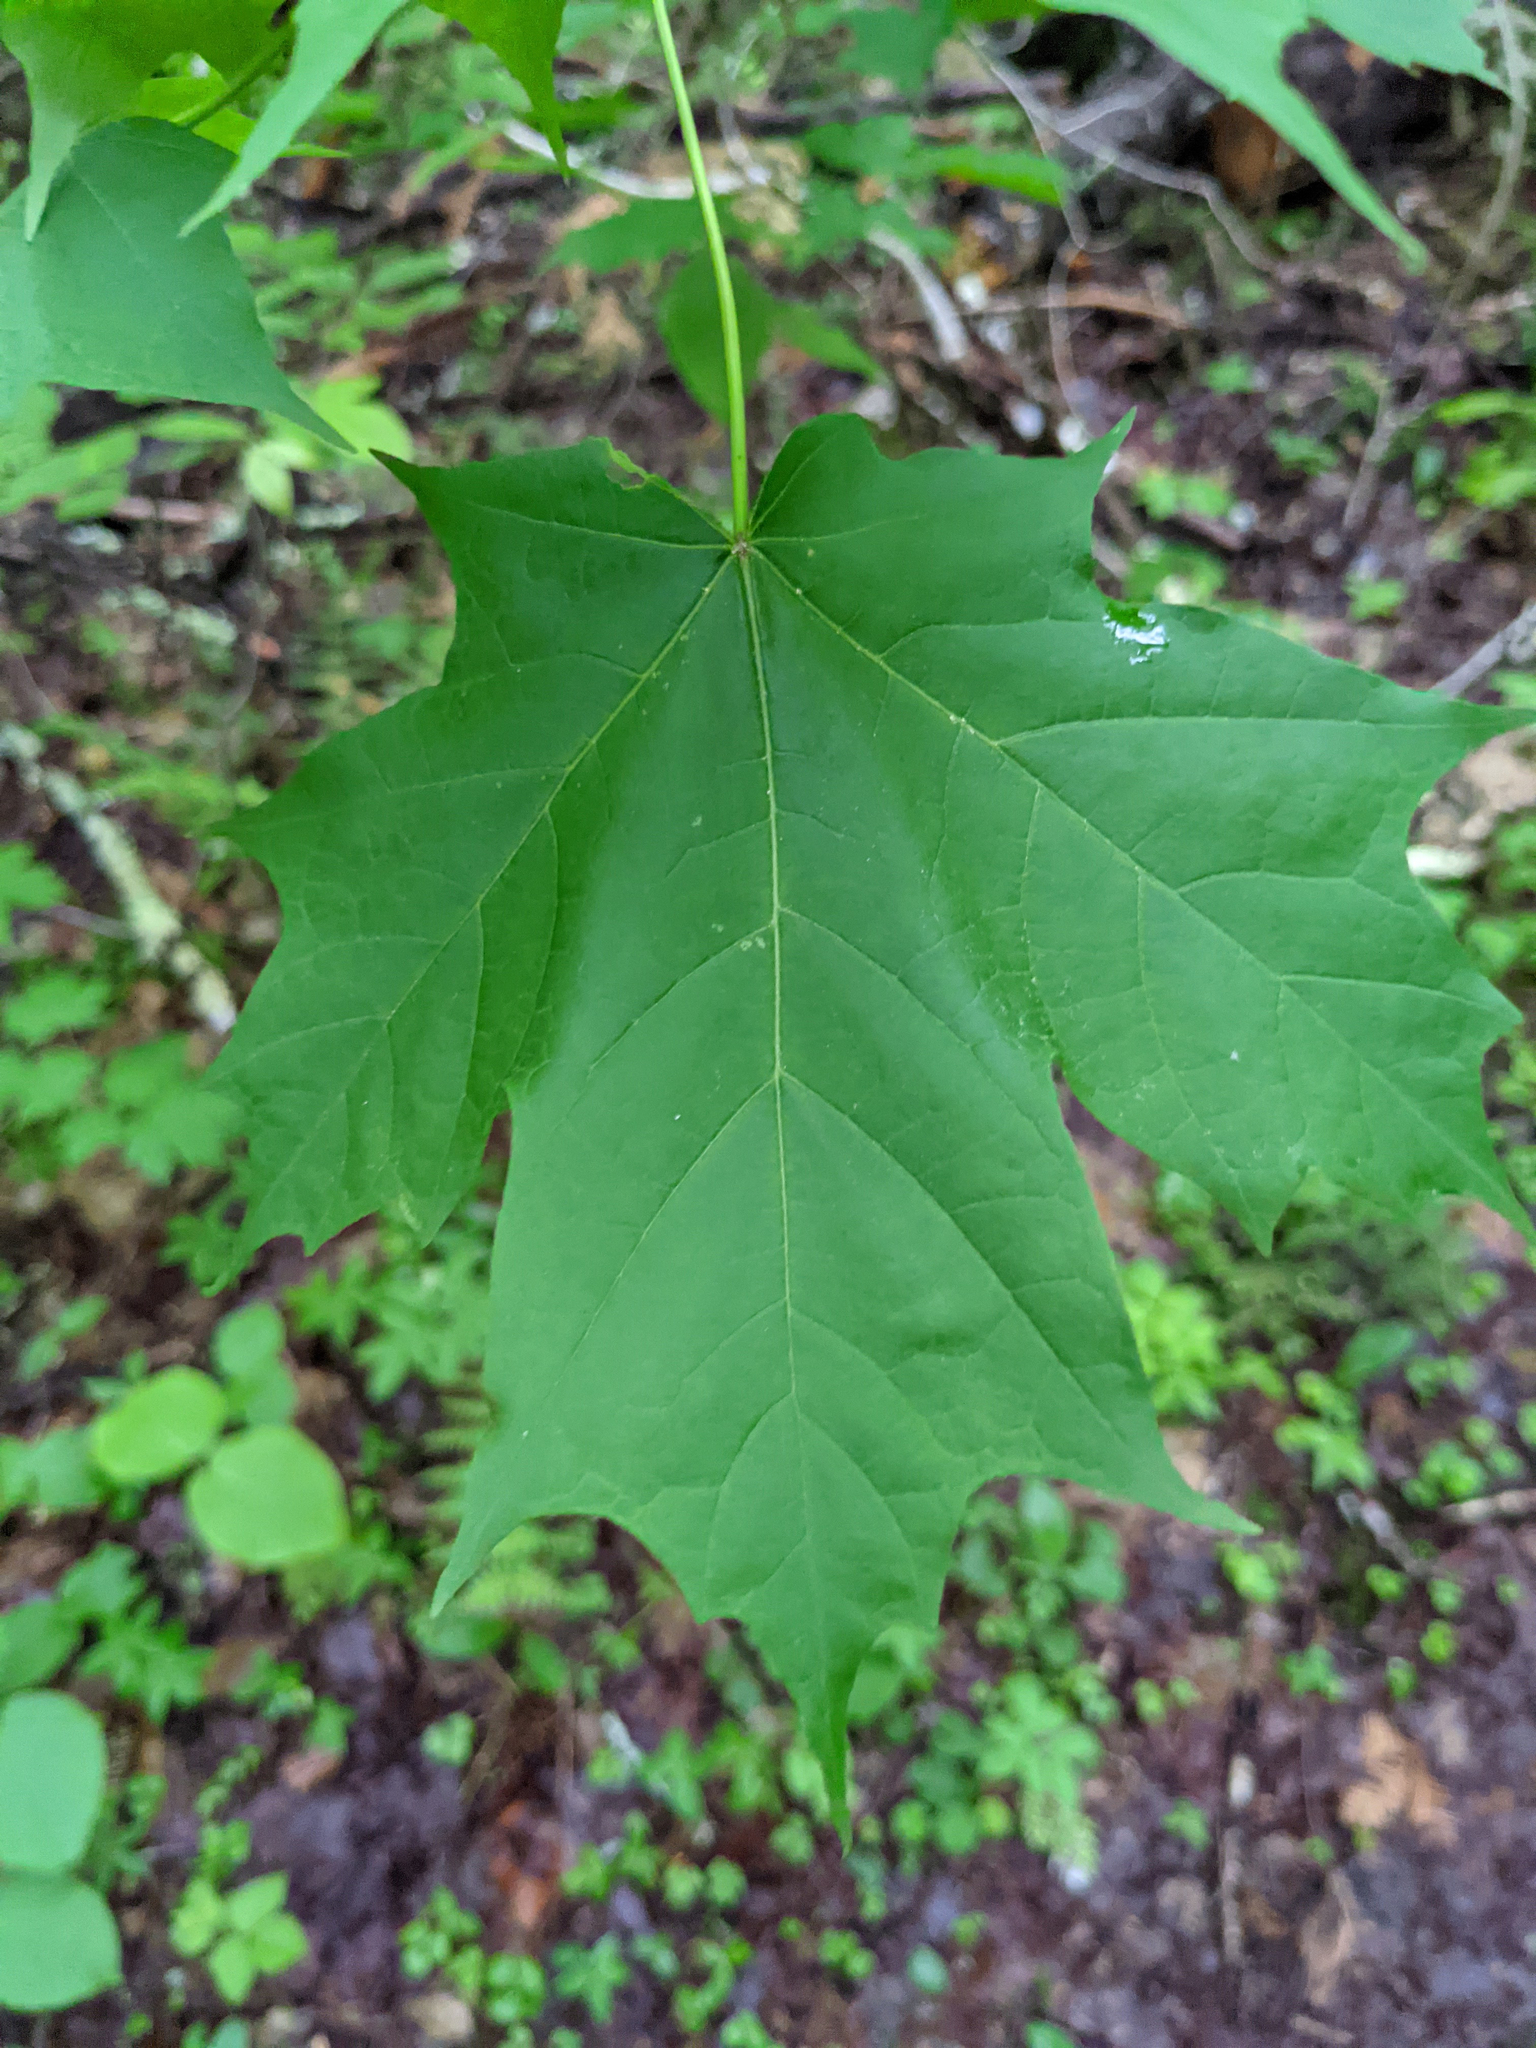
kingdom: Plantae
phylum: Tracheophyta
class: Magnoliopsida
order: Sapindales
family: Sapindaceae
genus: Acer
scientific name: Acer saccharum
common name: Sugar maple
